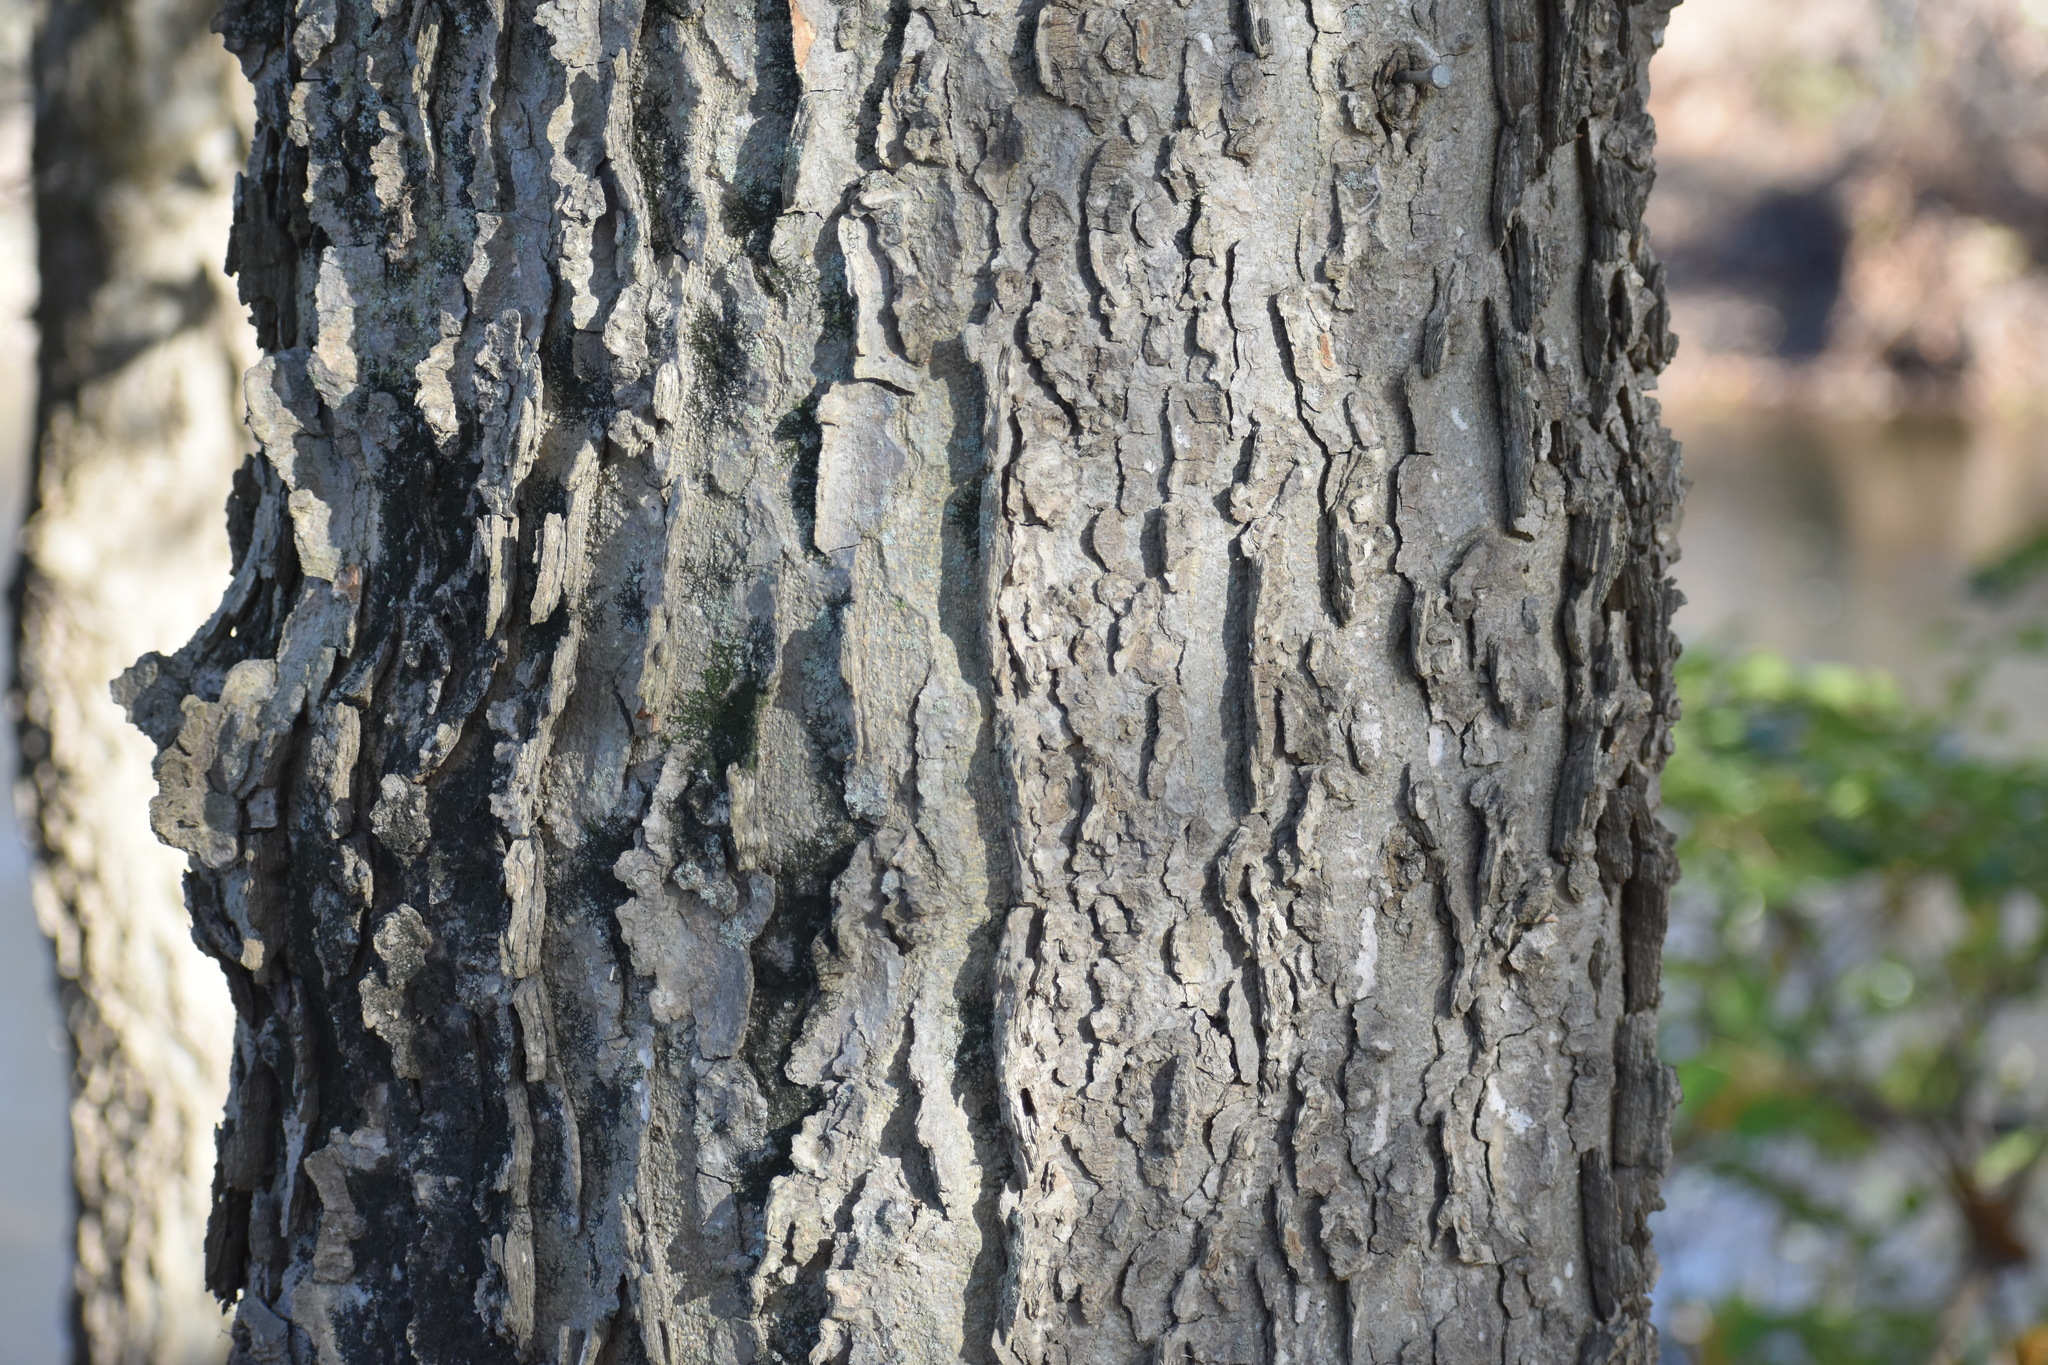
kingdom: Plantae
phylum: Tracheophyta
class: Magnoliopsida
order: Rosales
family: Cannabaceae
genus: Celtis
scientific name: Celtis occidentalis
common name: Common hackberry
